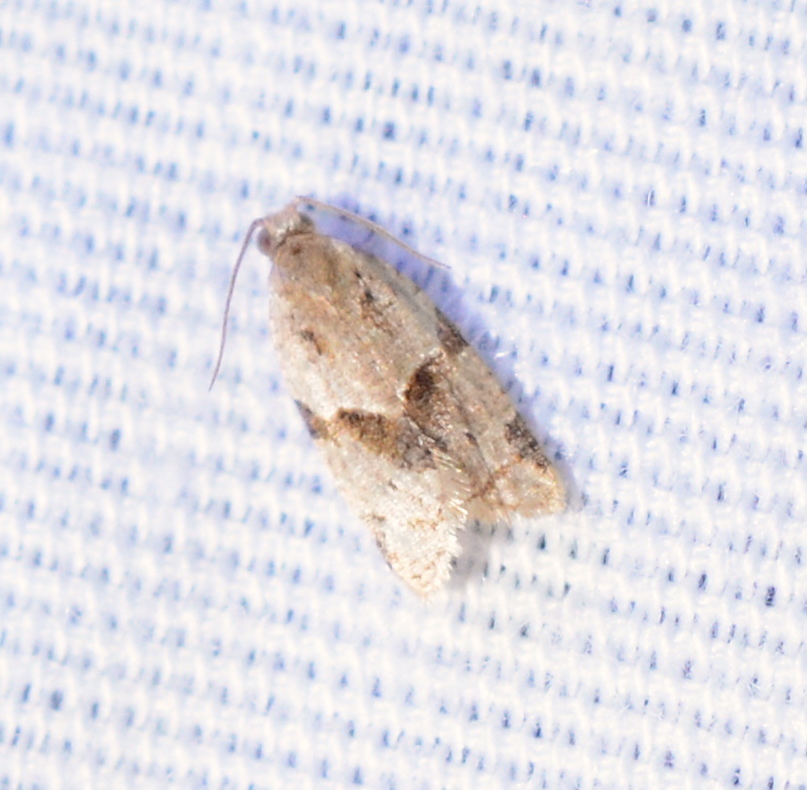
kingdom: Animalia
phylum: Arthropoda
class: Insecta
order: Lepidoptera
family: Tortricidae
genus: Clepsis
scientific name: Clepsis peritana
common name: Garden tortrix
